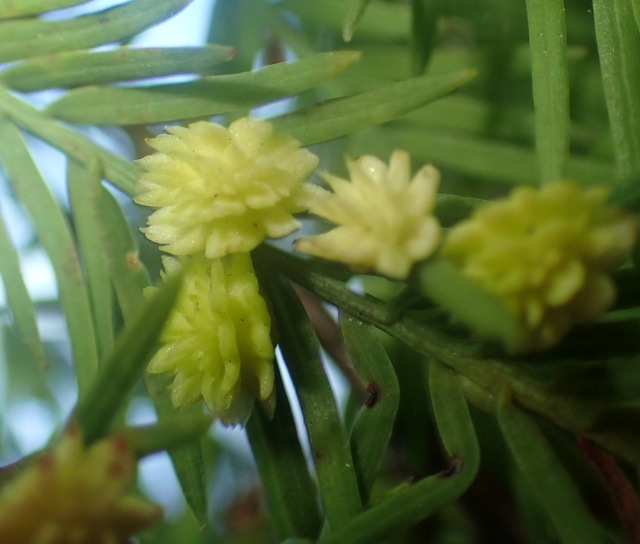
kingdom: Animalia
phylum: Arthropoda
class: Insecta
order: Diptera
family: Cecidomyiidae
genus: Taxodiomyia
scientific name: Taxodiomyia
